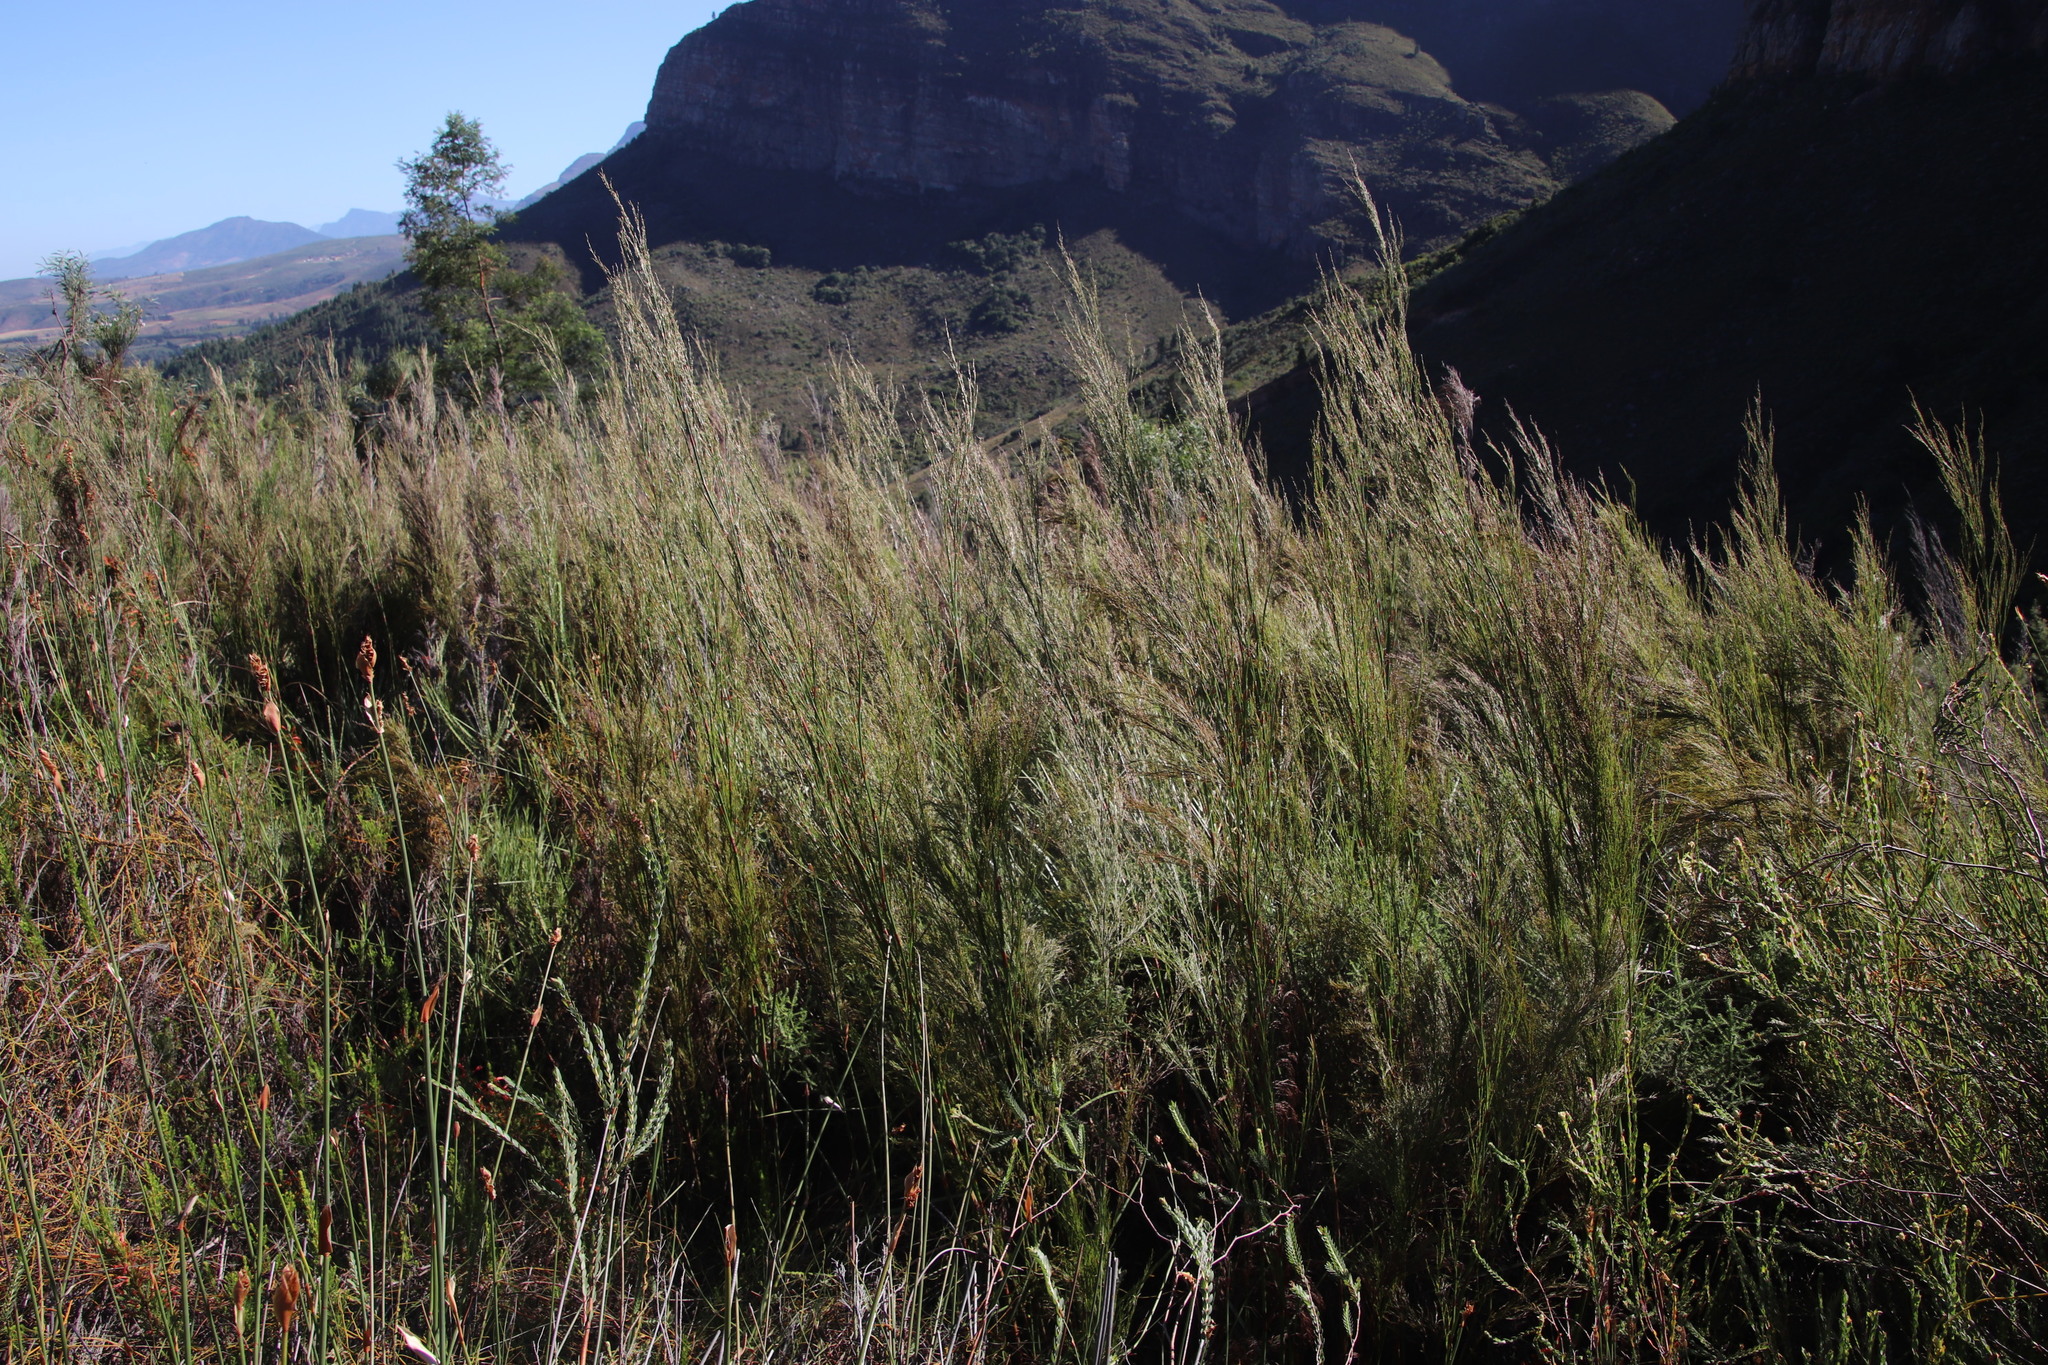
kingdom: Plantae
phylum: Tracheophyta
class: Liliopsida
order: Poales
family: Restionaceae
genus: Restio
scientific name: Restio paniculatus
